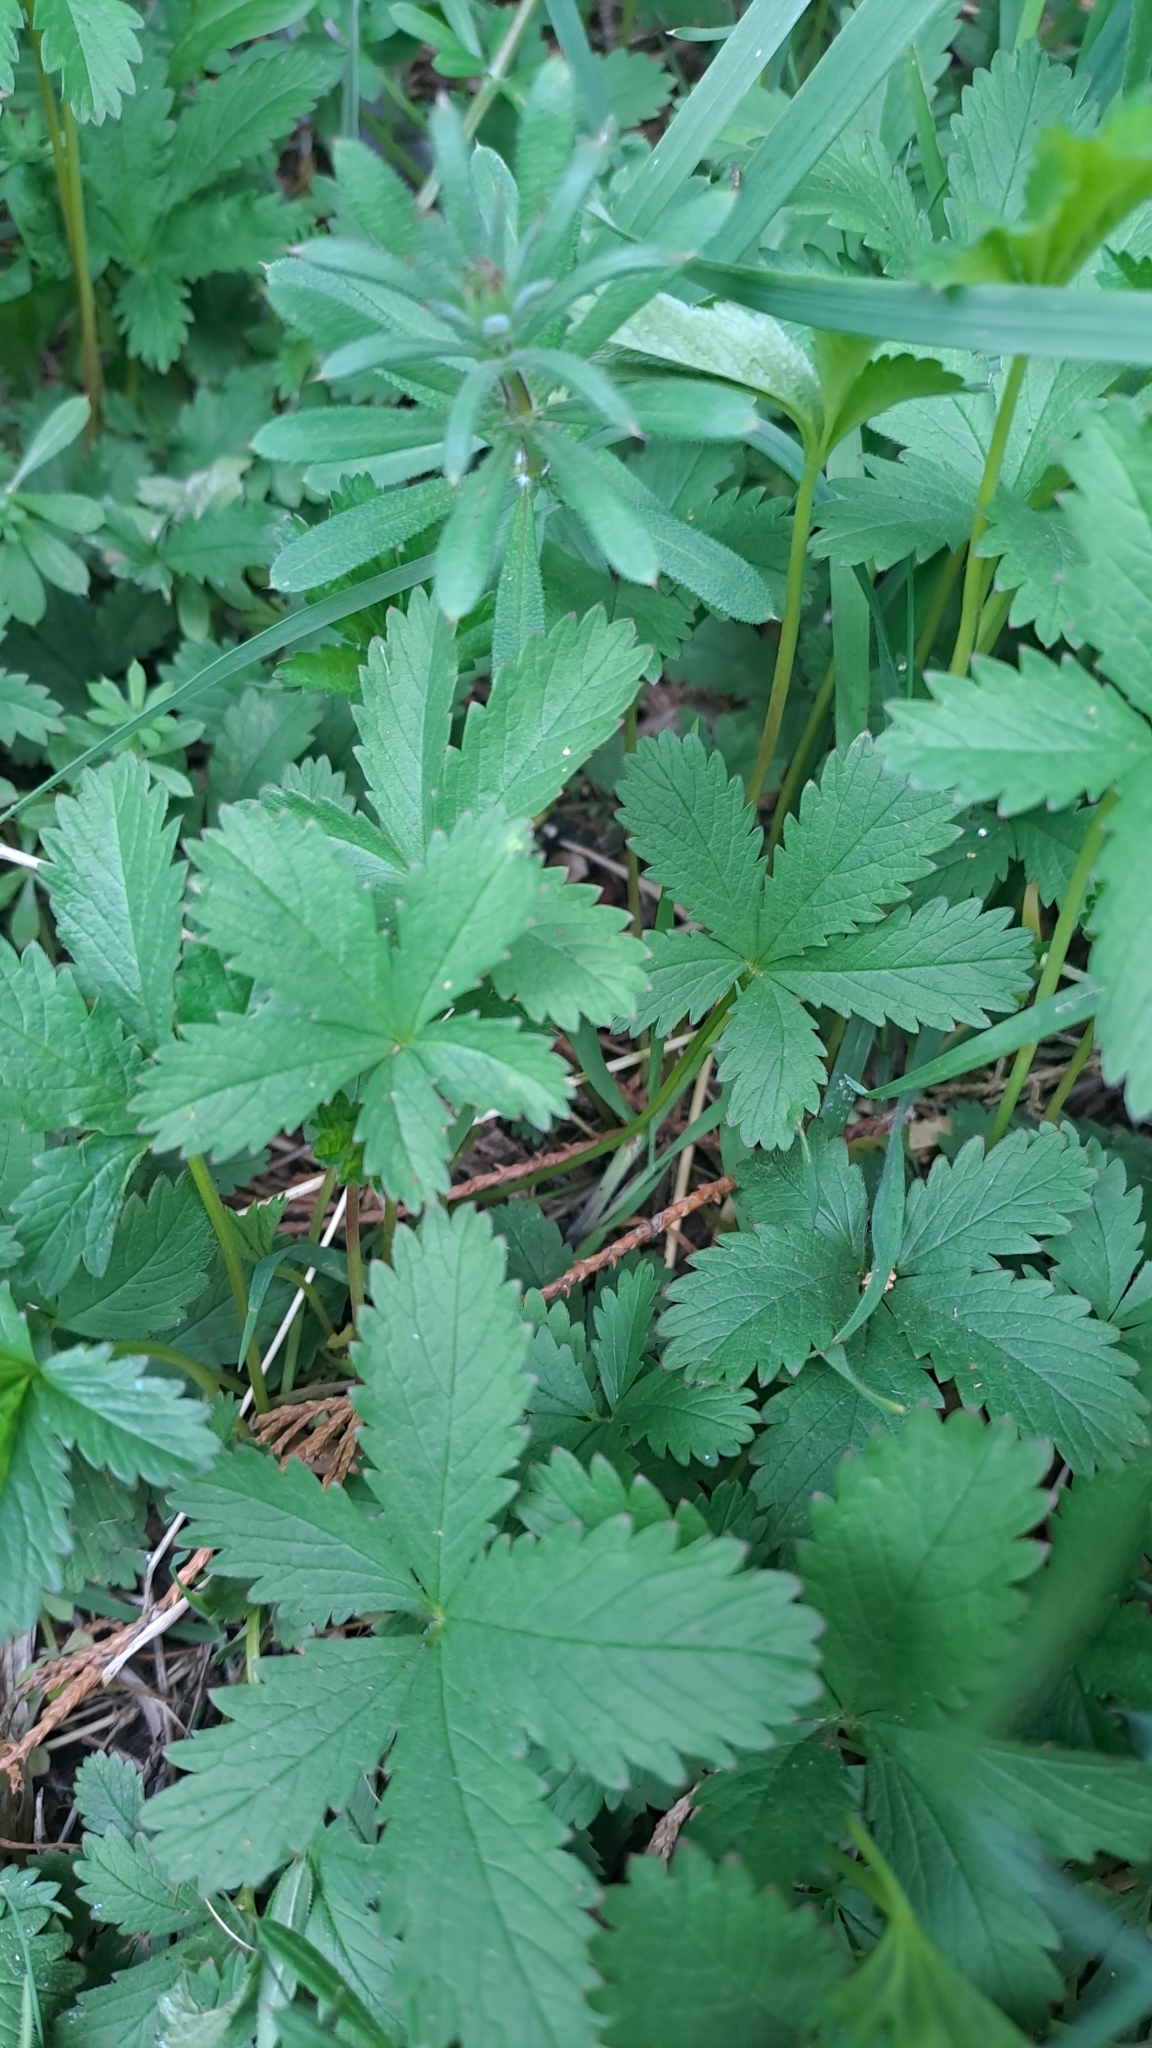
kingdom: Plantae
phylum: Tracheophyta
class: Magnoliopsida
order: Rosales
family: Rosaceae
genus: Potentilla
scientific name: Potentilla reptans
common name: Creeping cinquefoil
